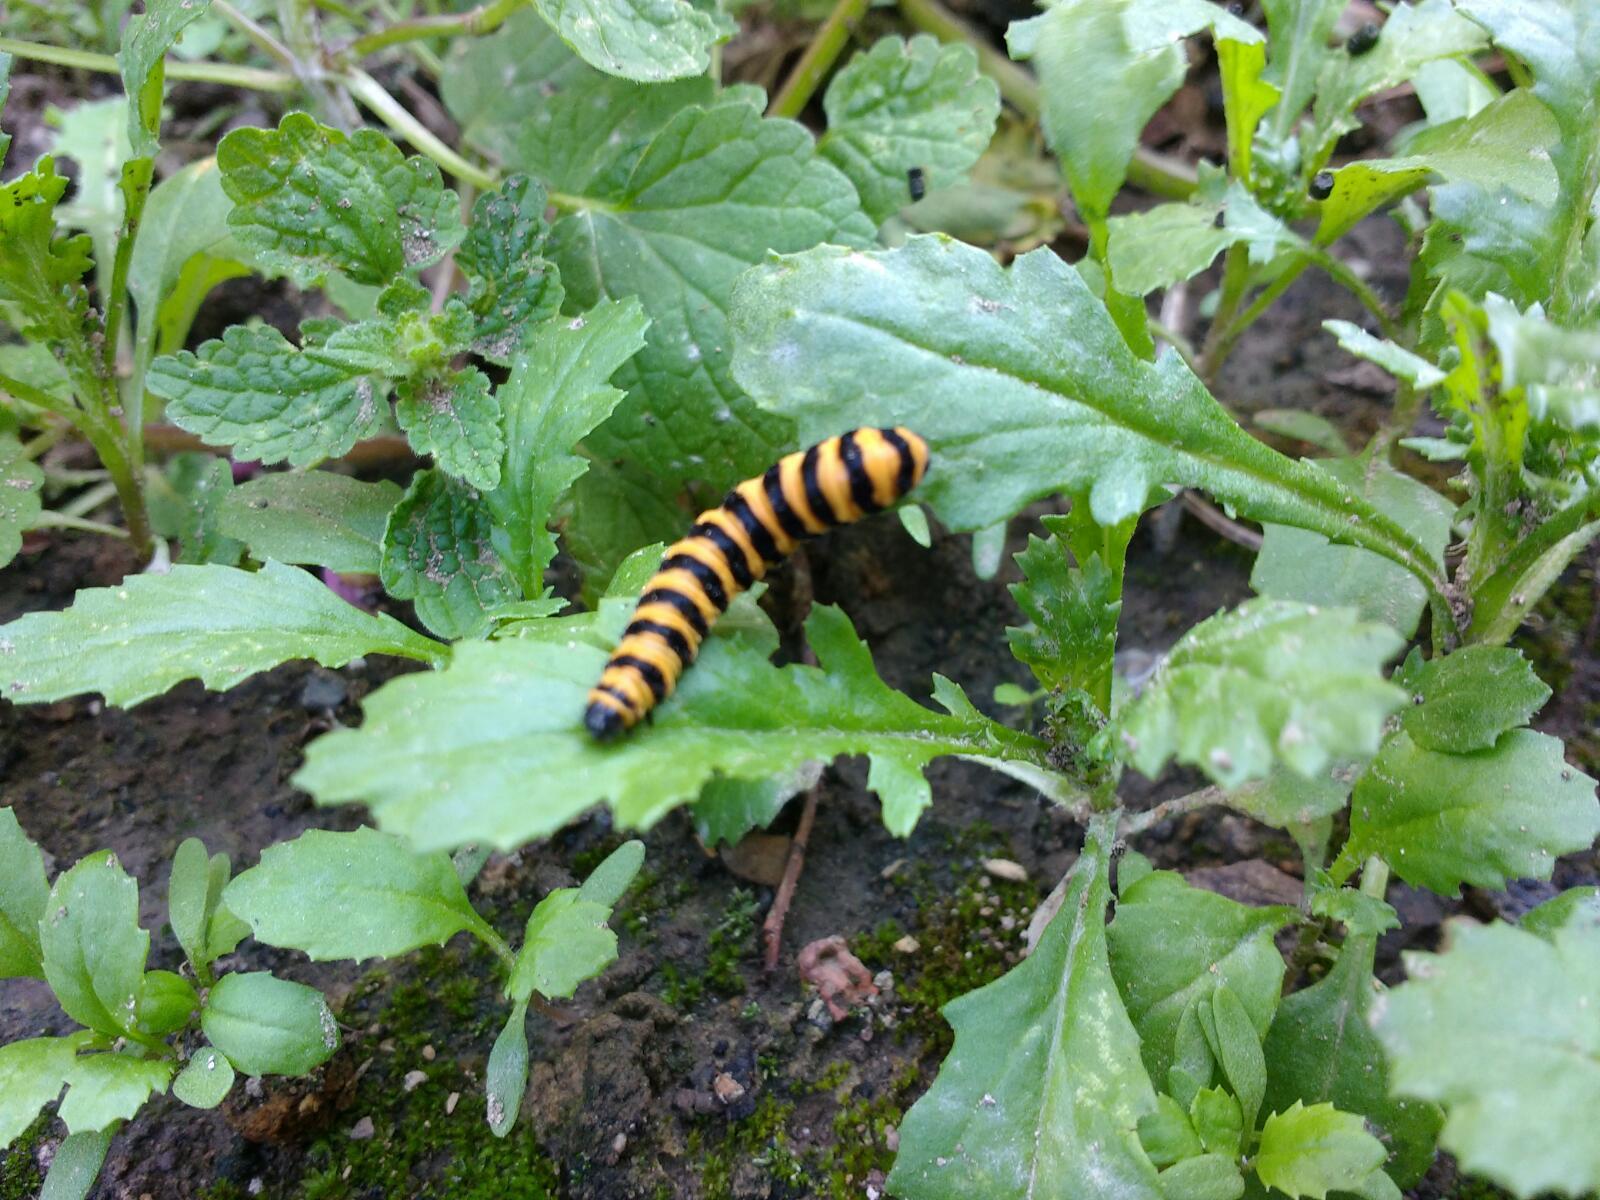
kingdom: Animalia
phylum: Arthropoda
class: Insecta
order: Lepidoptera
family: Erebidae
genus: Tyria
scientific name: Tyria jacobaeae
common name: Cinnabar
